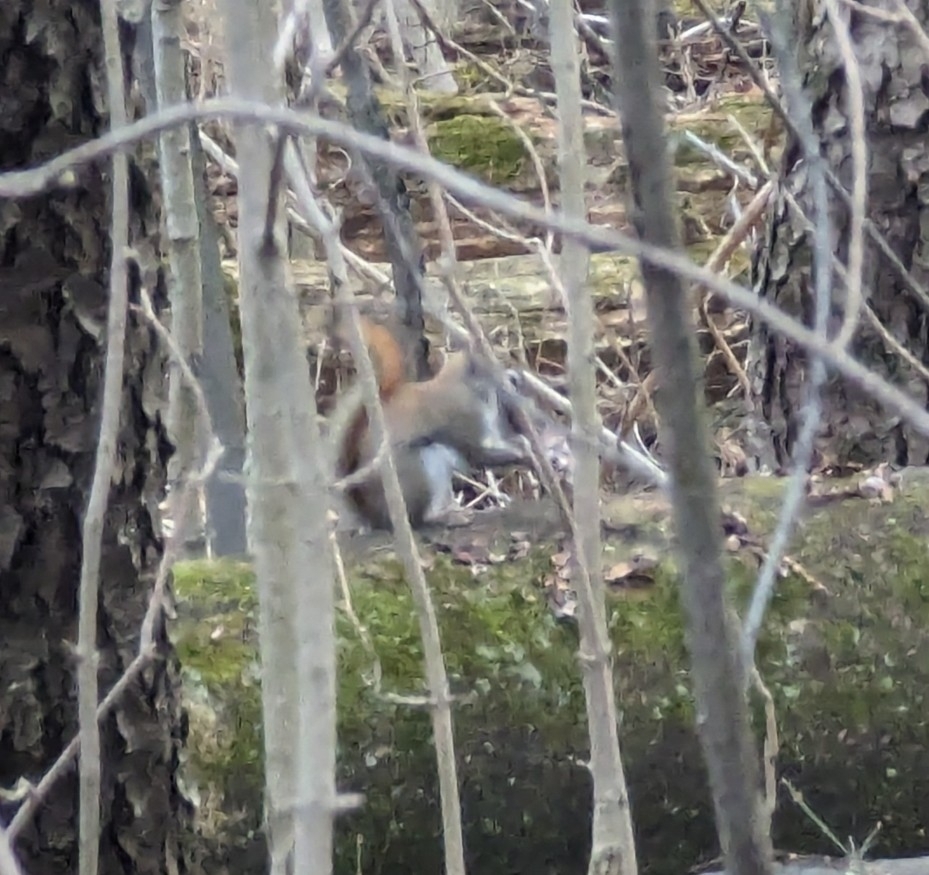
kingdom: Animalia
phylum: Chordata
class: Mammalia
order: Rodentia
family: Sciuridae
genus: Tamiasciurus
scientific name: Tamiasciurus hudsonicus
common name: Red squirrel
